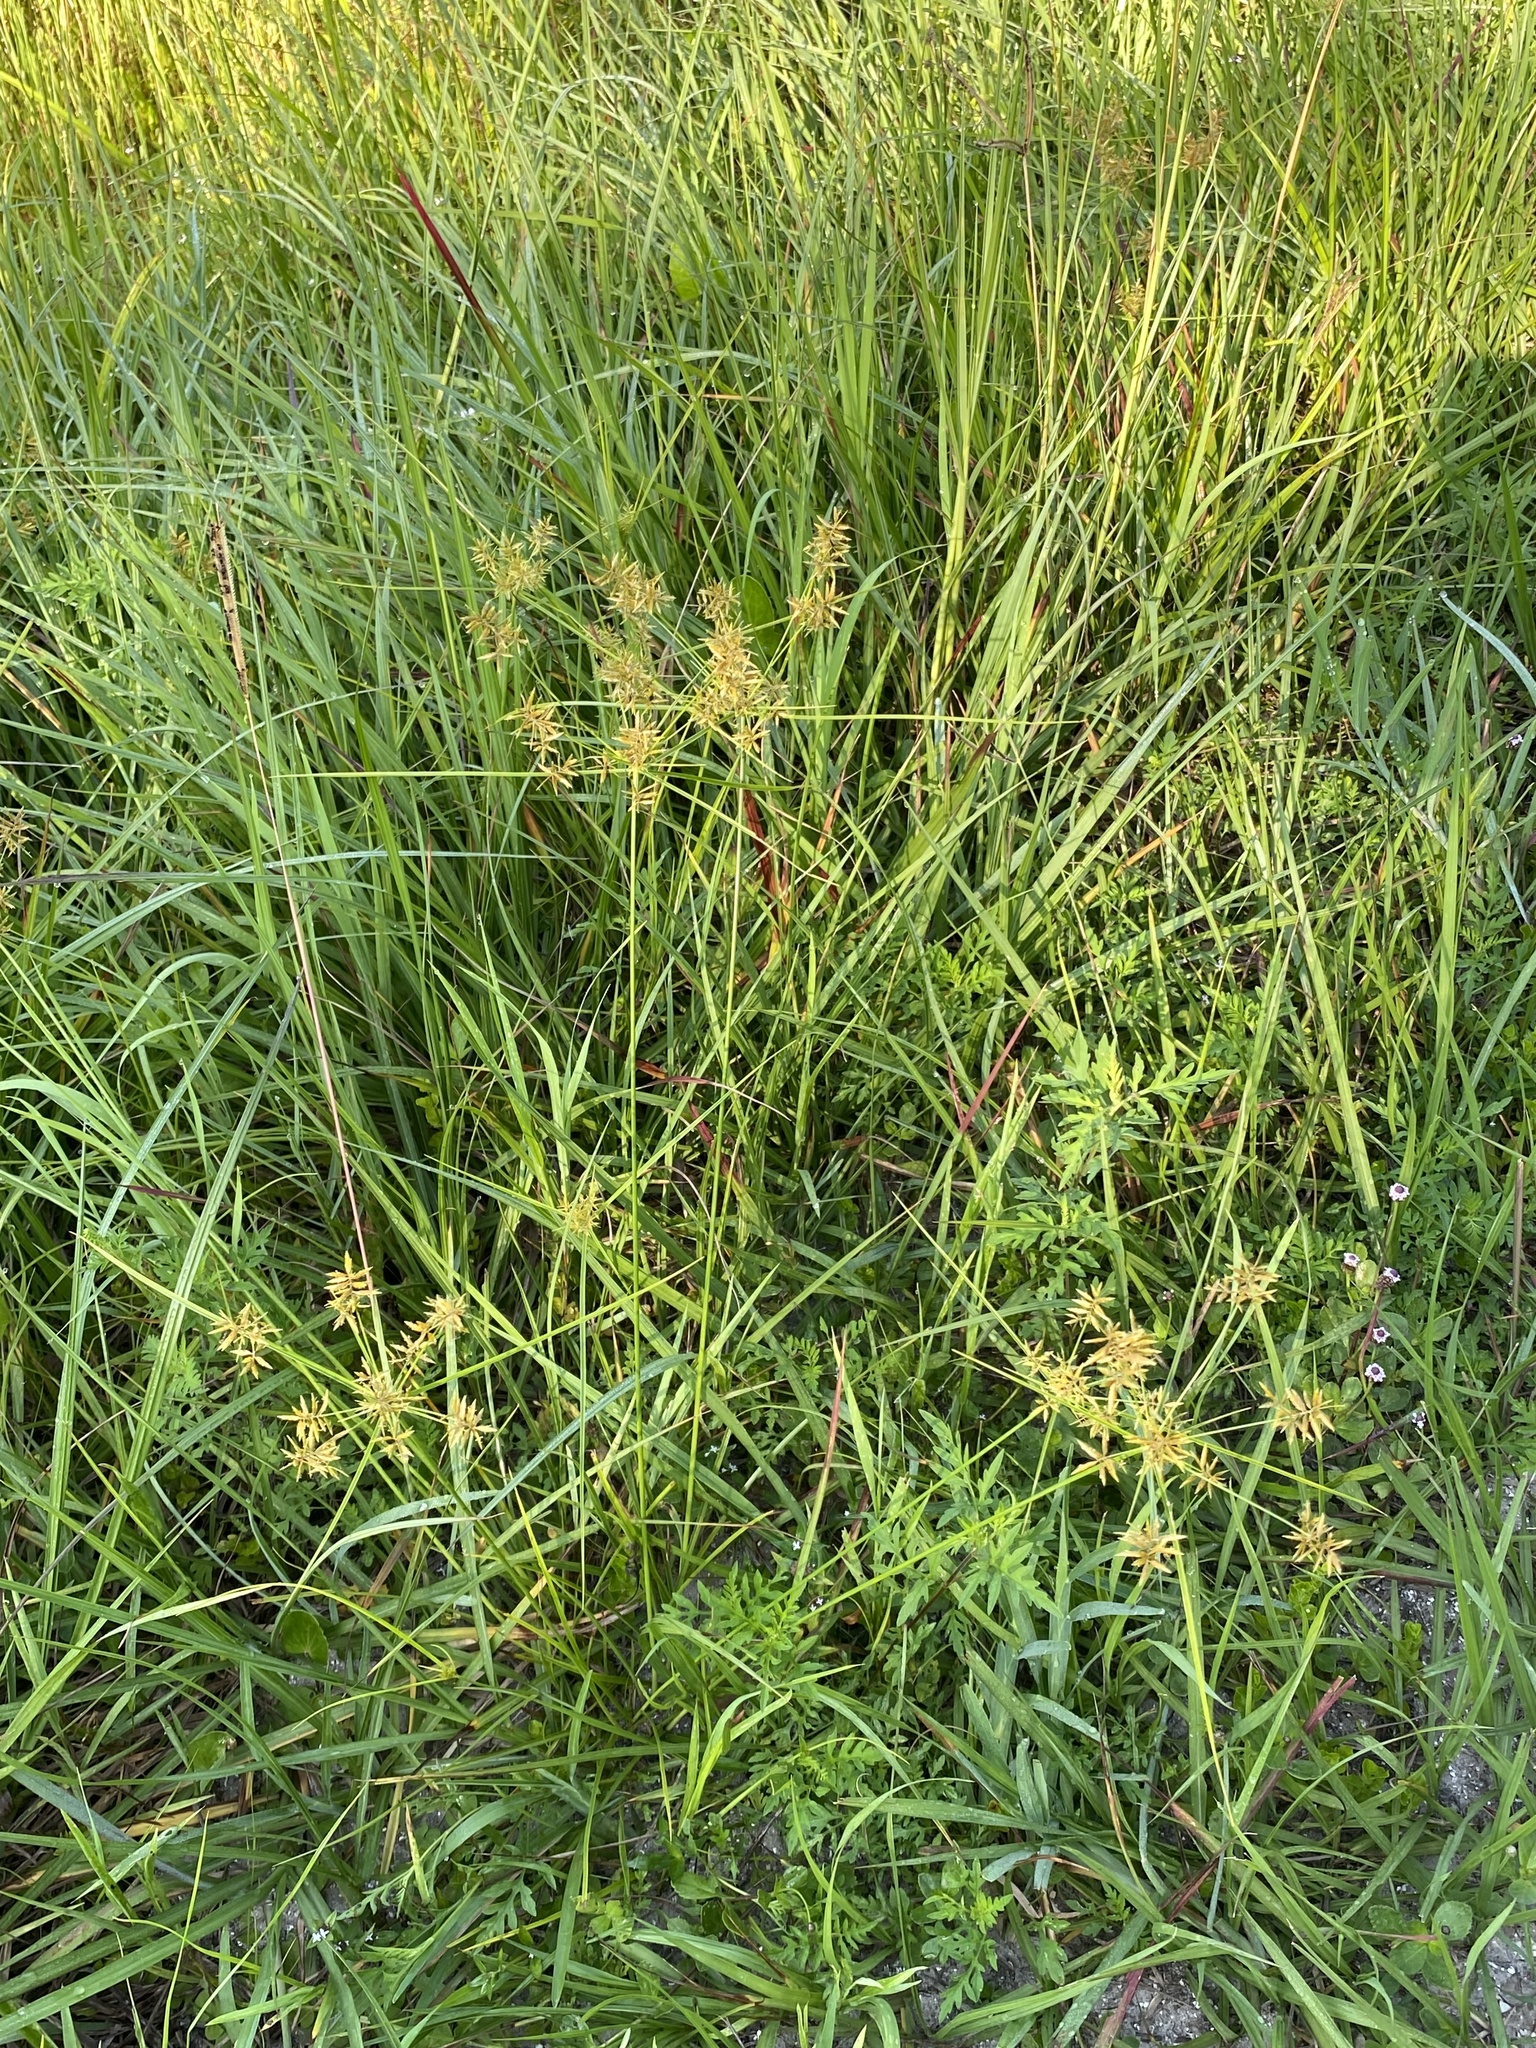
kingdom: Plantae
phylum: Tracheophyta
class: Liliopsida
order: Poales
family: Cyperaceae
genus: Cyperus
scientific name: Cyperus polystachyos
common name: Bunchy flat sedge
